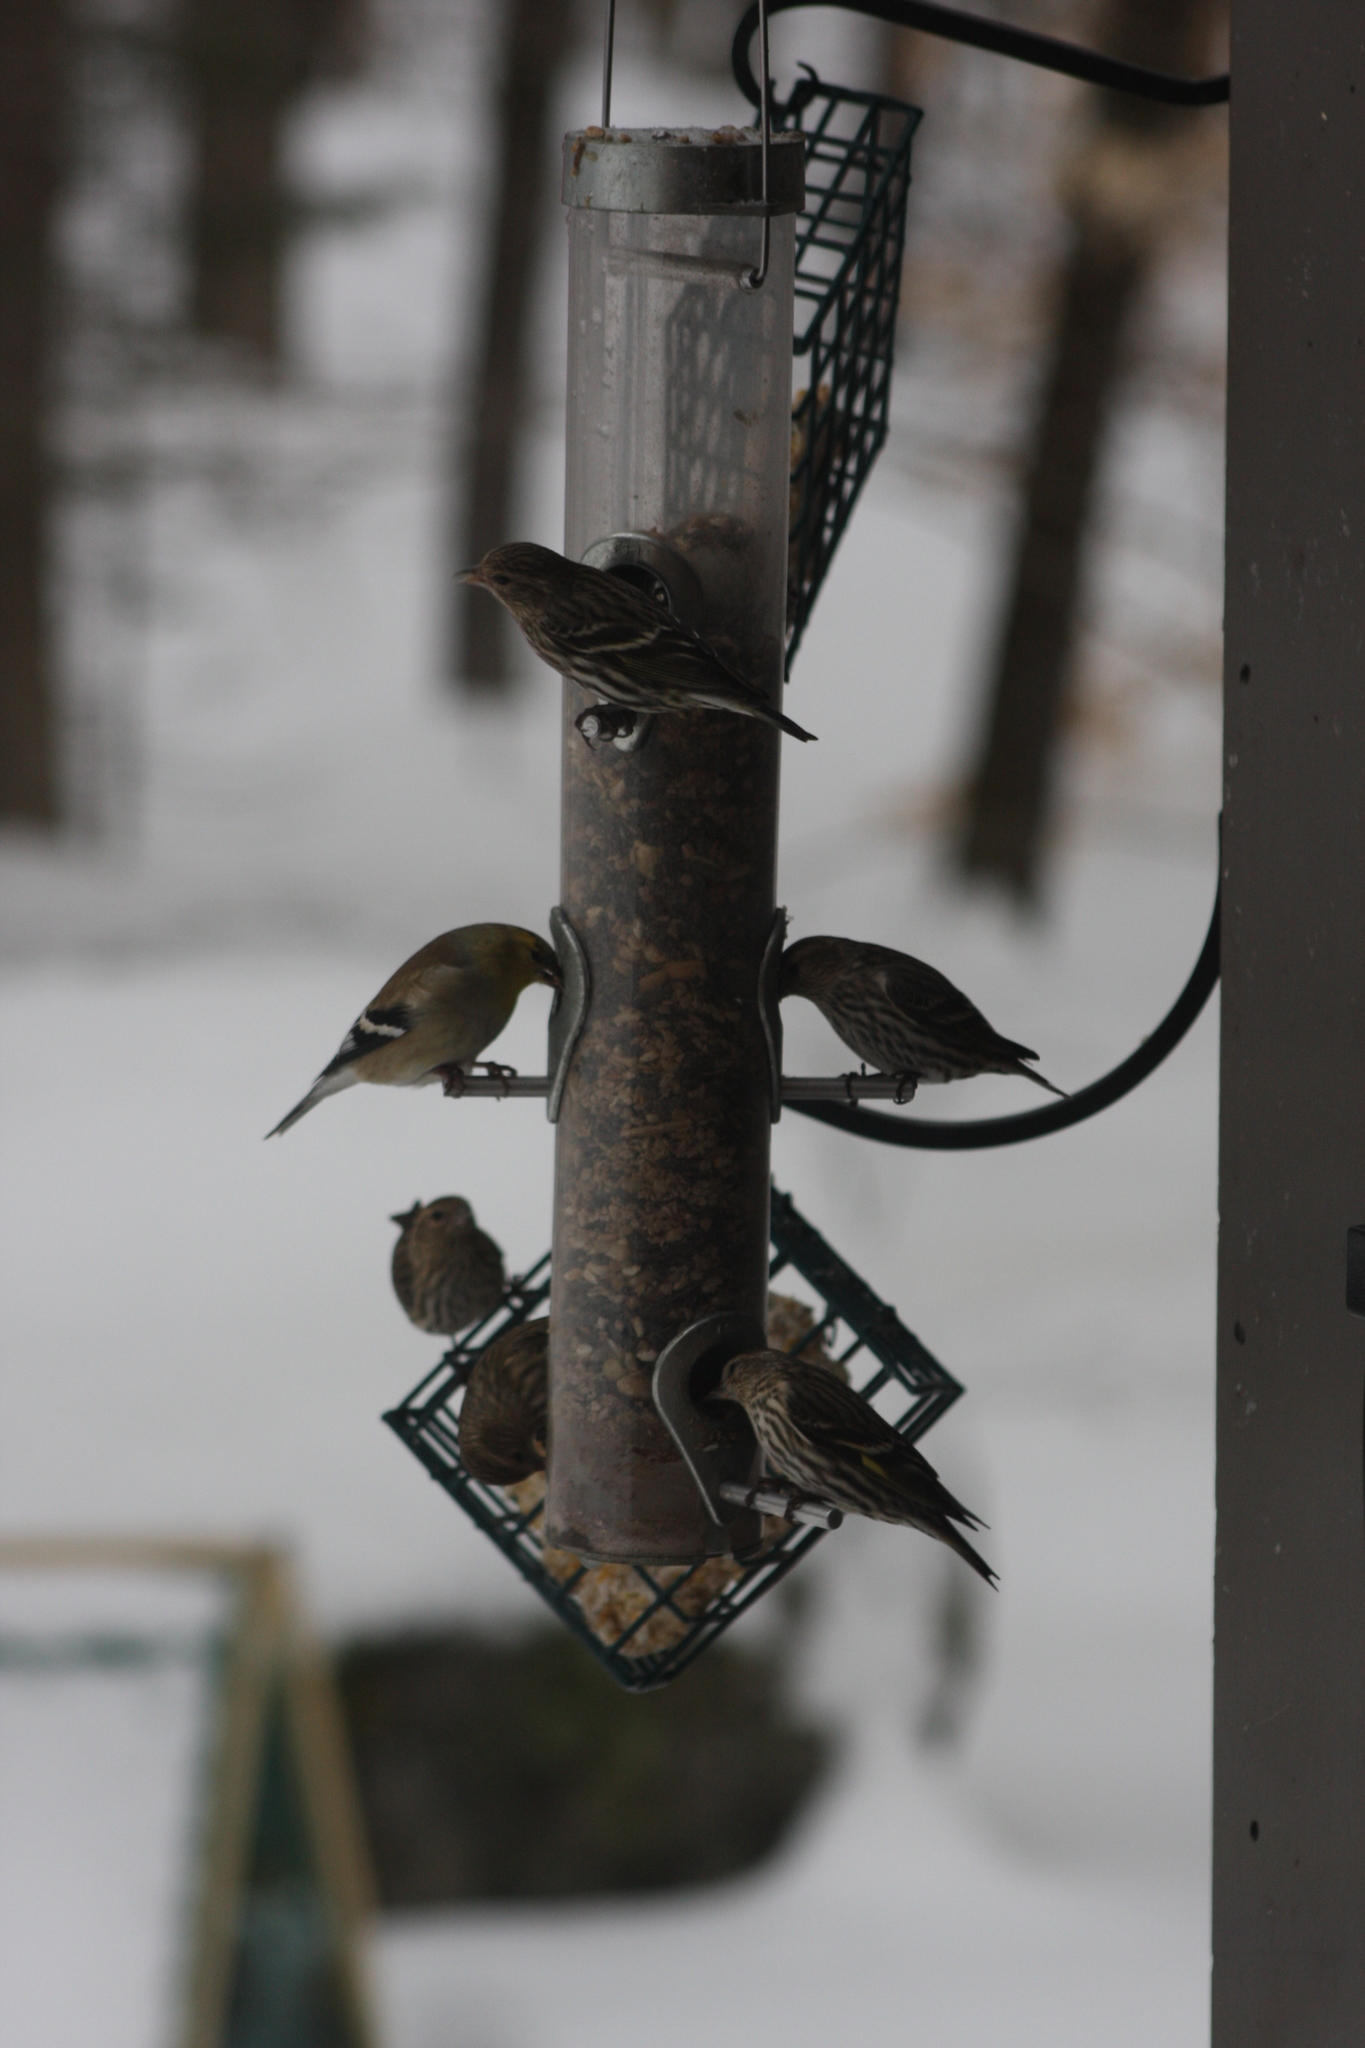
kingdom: Animalia
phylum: Chordata
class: Aves
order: Passeriformes
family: Fringillidae
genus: Spinus
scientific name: Spinus tristis
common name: American goldfinch
